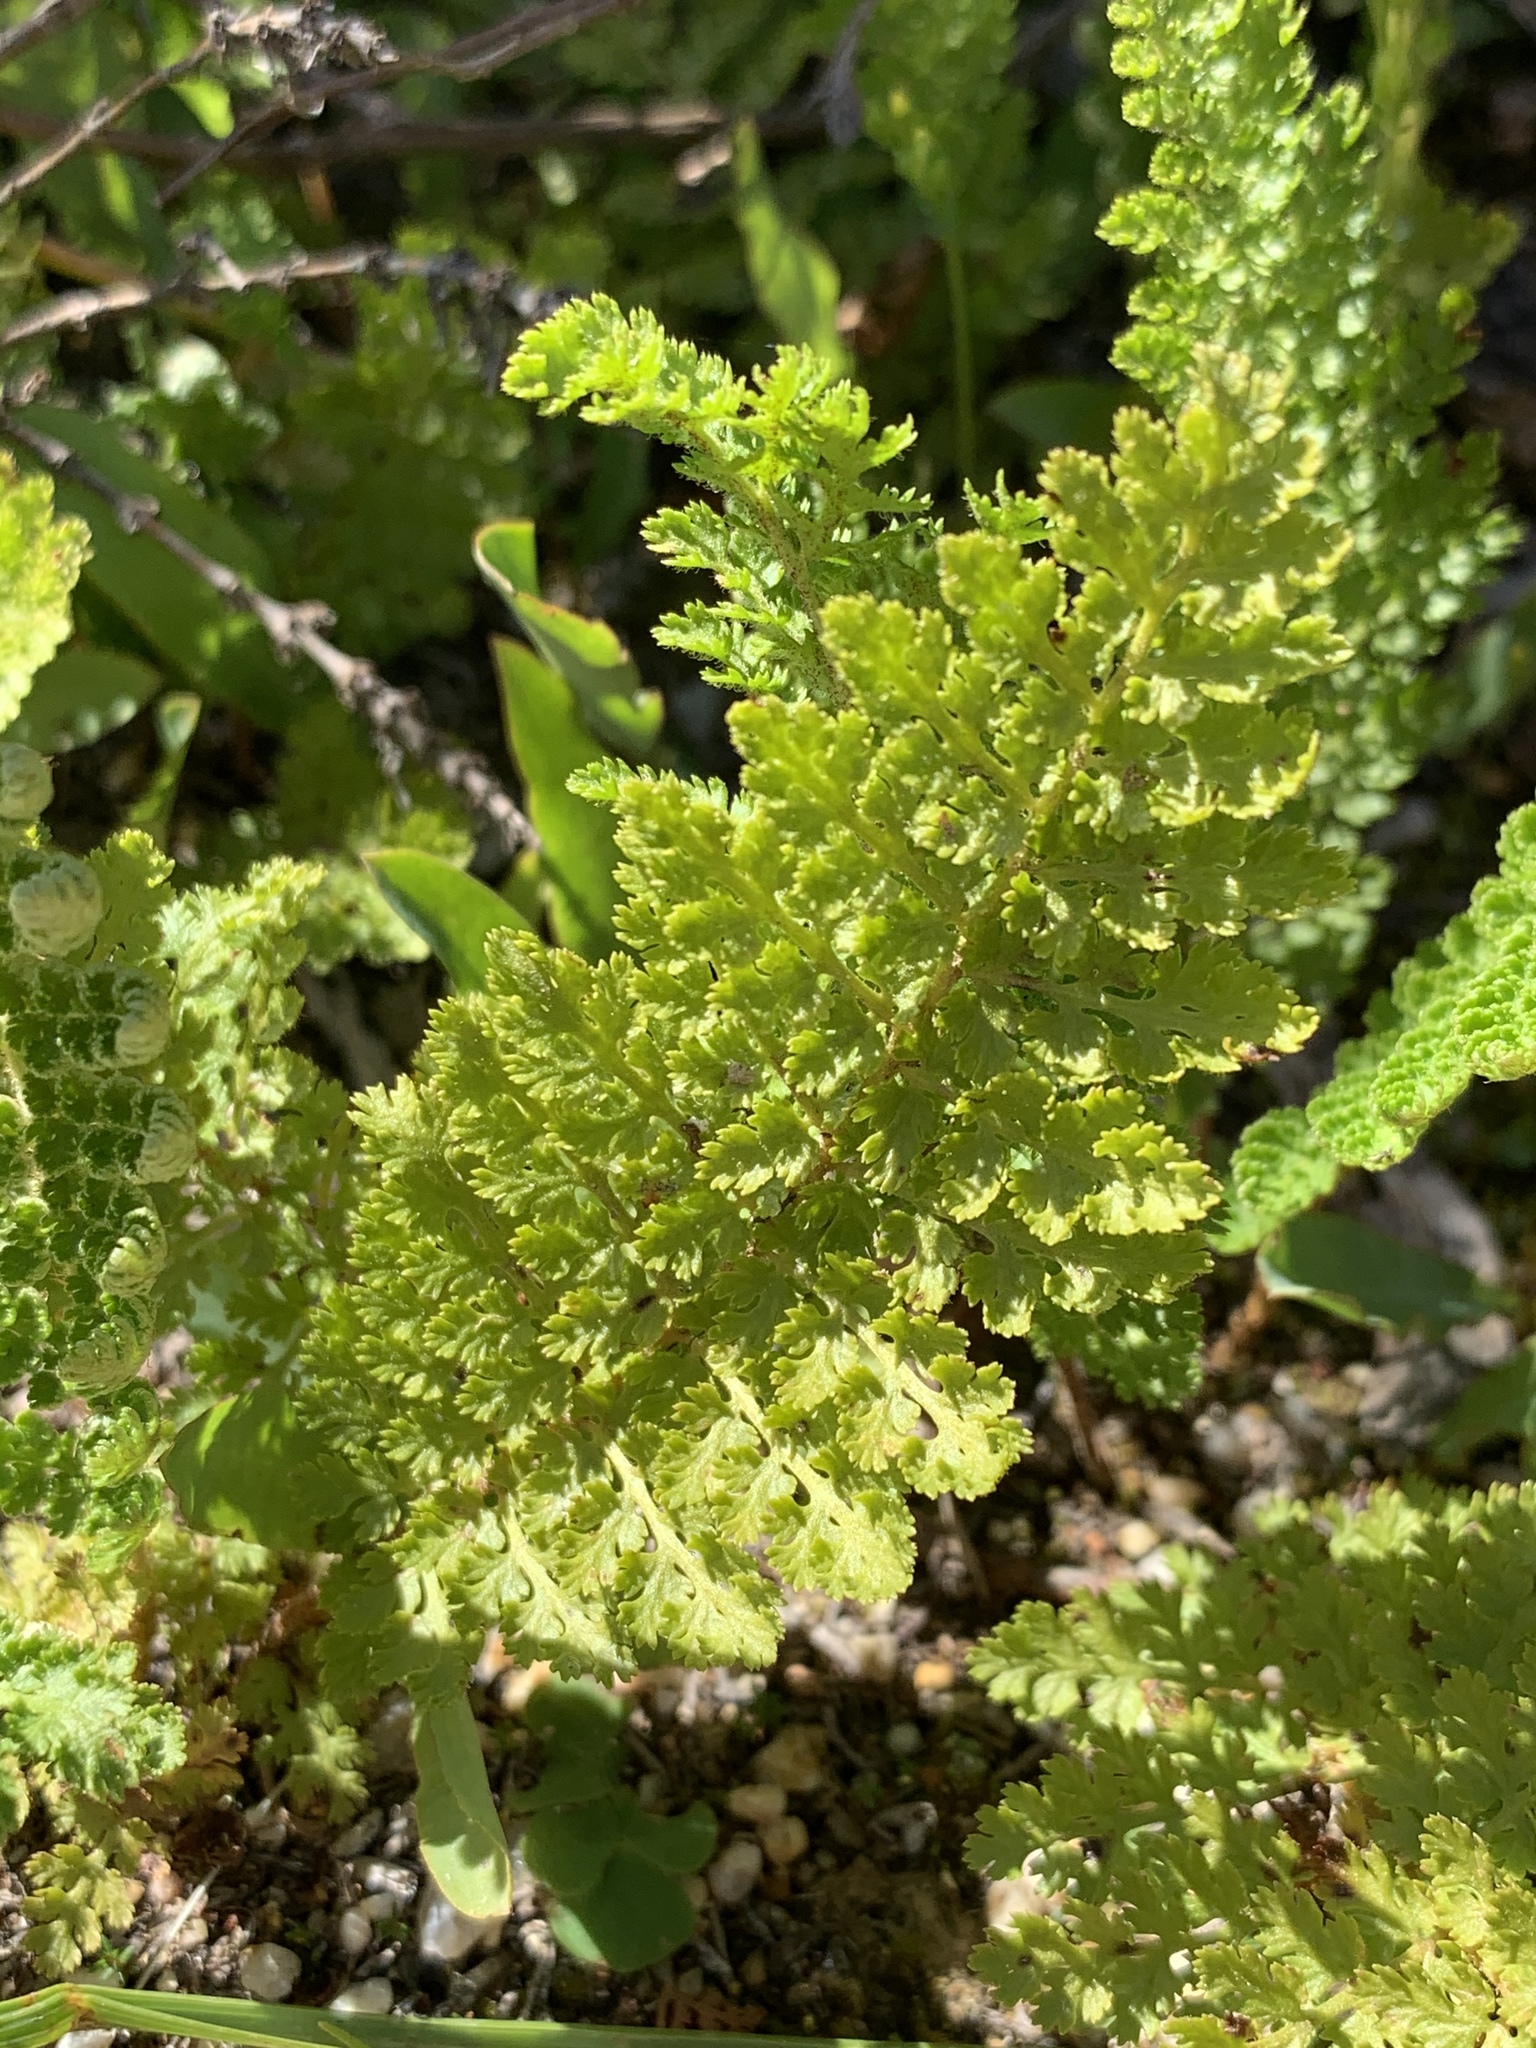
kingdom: Plantae
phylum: Tracheophyta
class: Polypodiopsida
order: Schizaeales
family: Anemiaceae
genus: Anemia
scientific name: Anemia caffrorum
